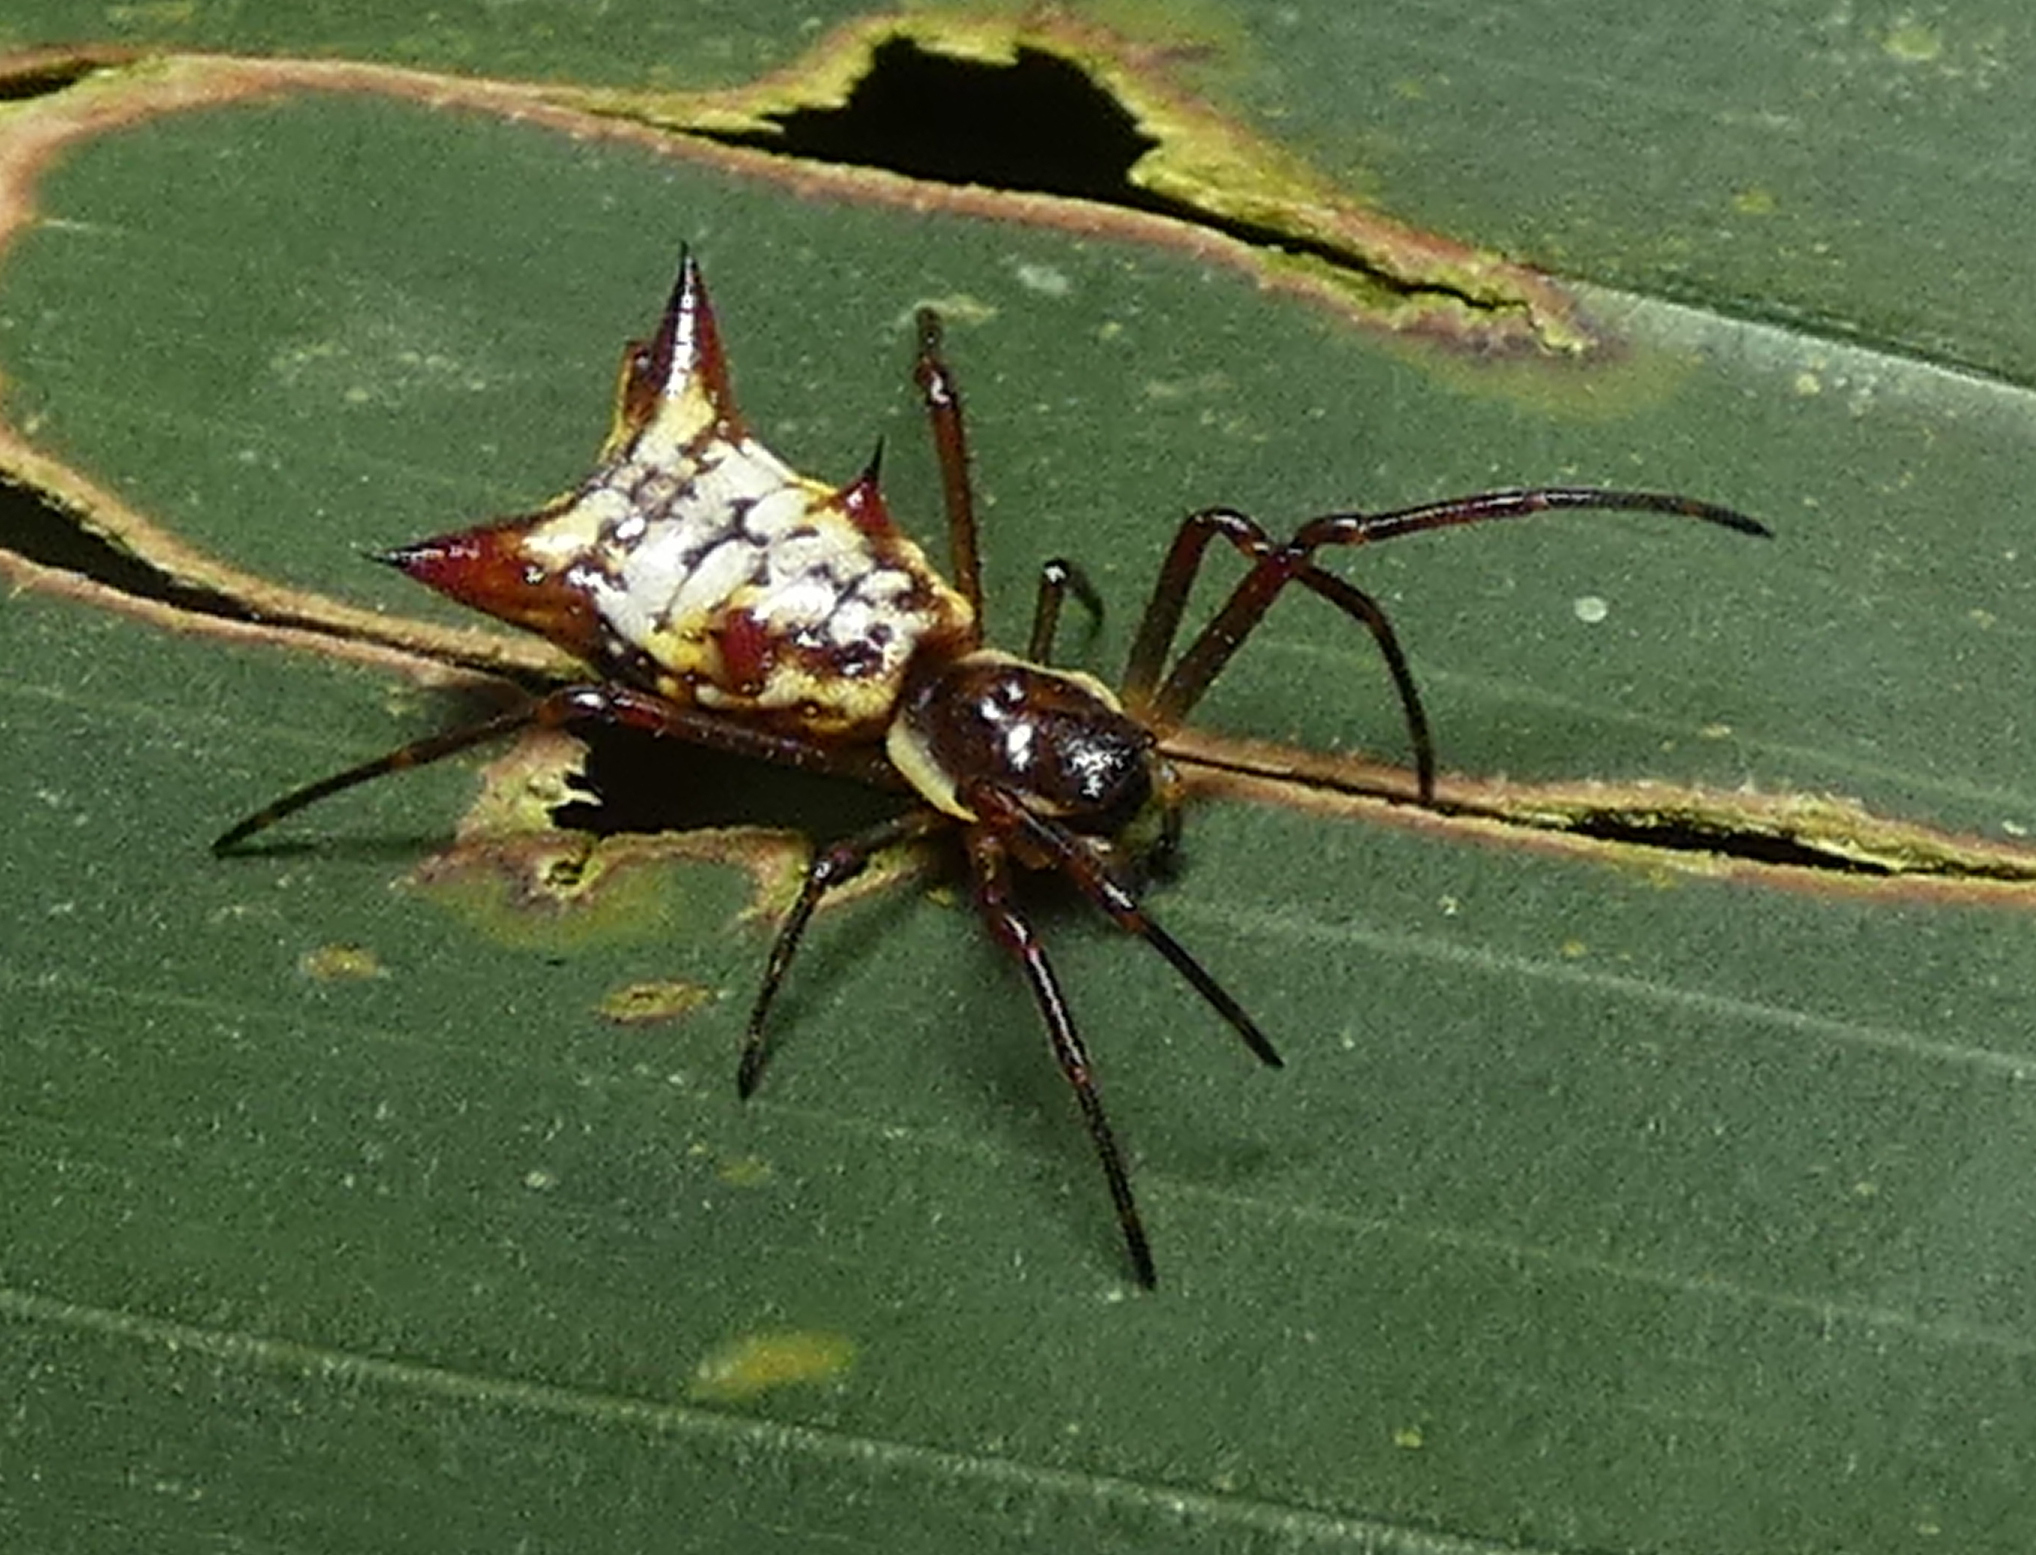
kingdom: Animalia
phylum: Arthropoda
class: Arachnida
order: Araneae
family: Araneidae
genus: Micrathena
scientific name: Micrathena fissispina
